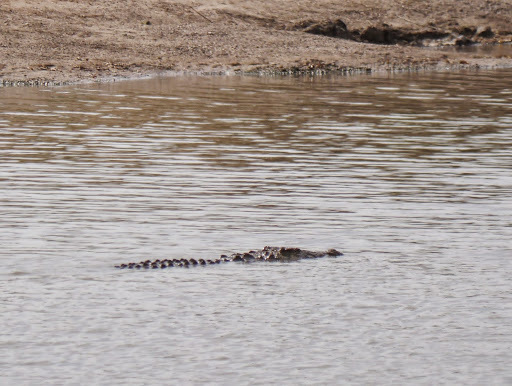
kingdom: Animalia
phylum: Chordata
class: Crocodylia
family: Crocodylidae
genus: Crocodylus
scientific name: Crocodylus niloticus
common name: Nile crocodile
